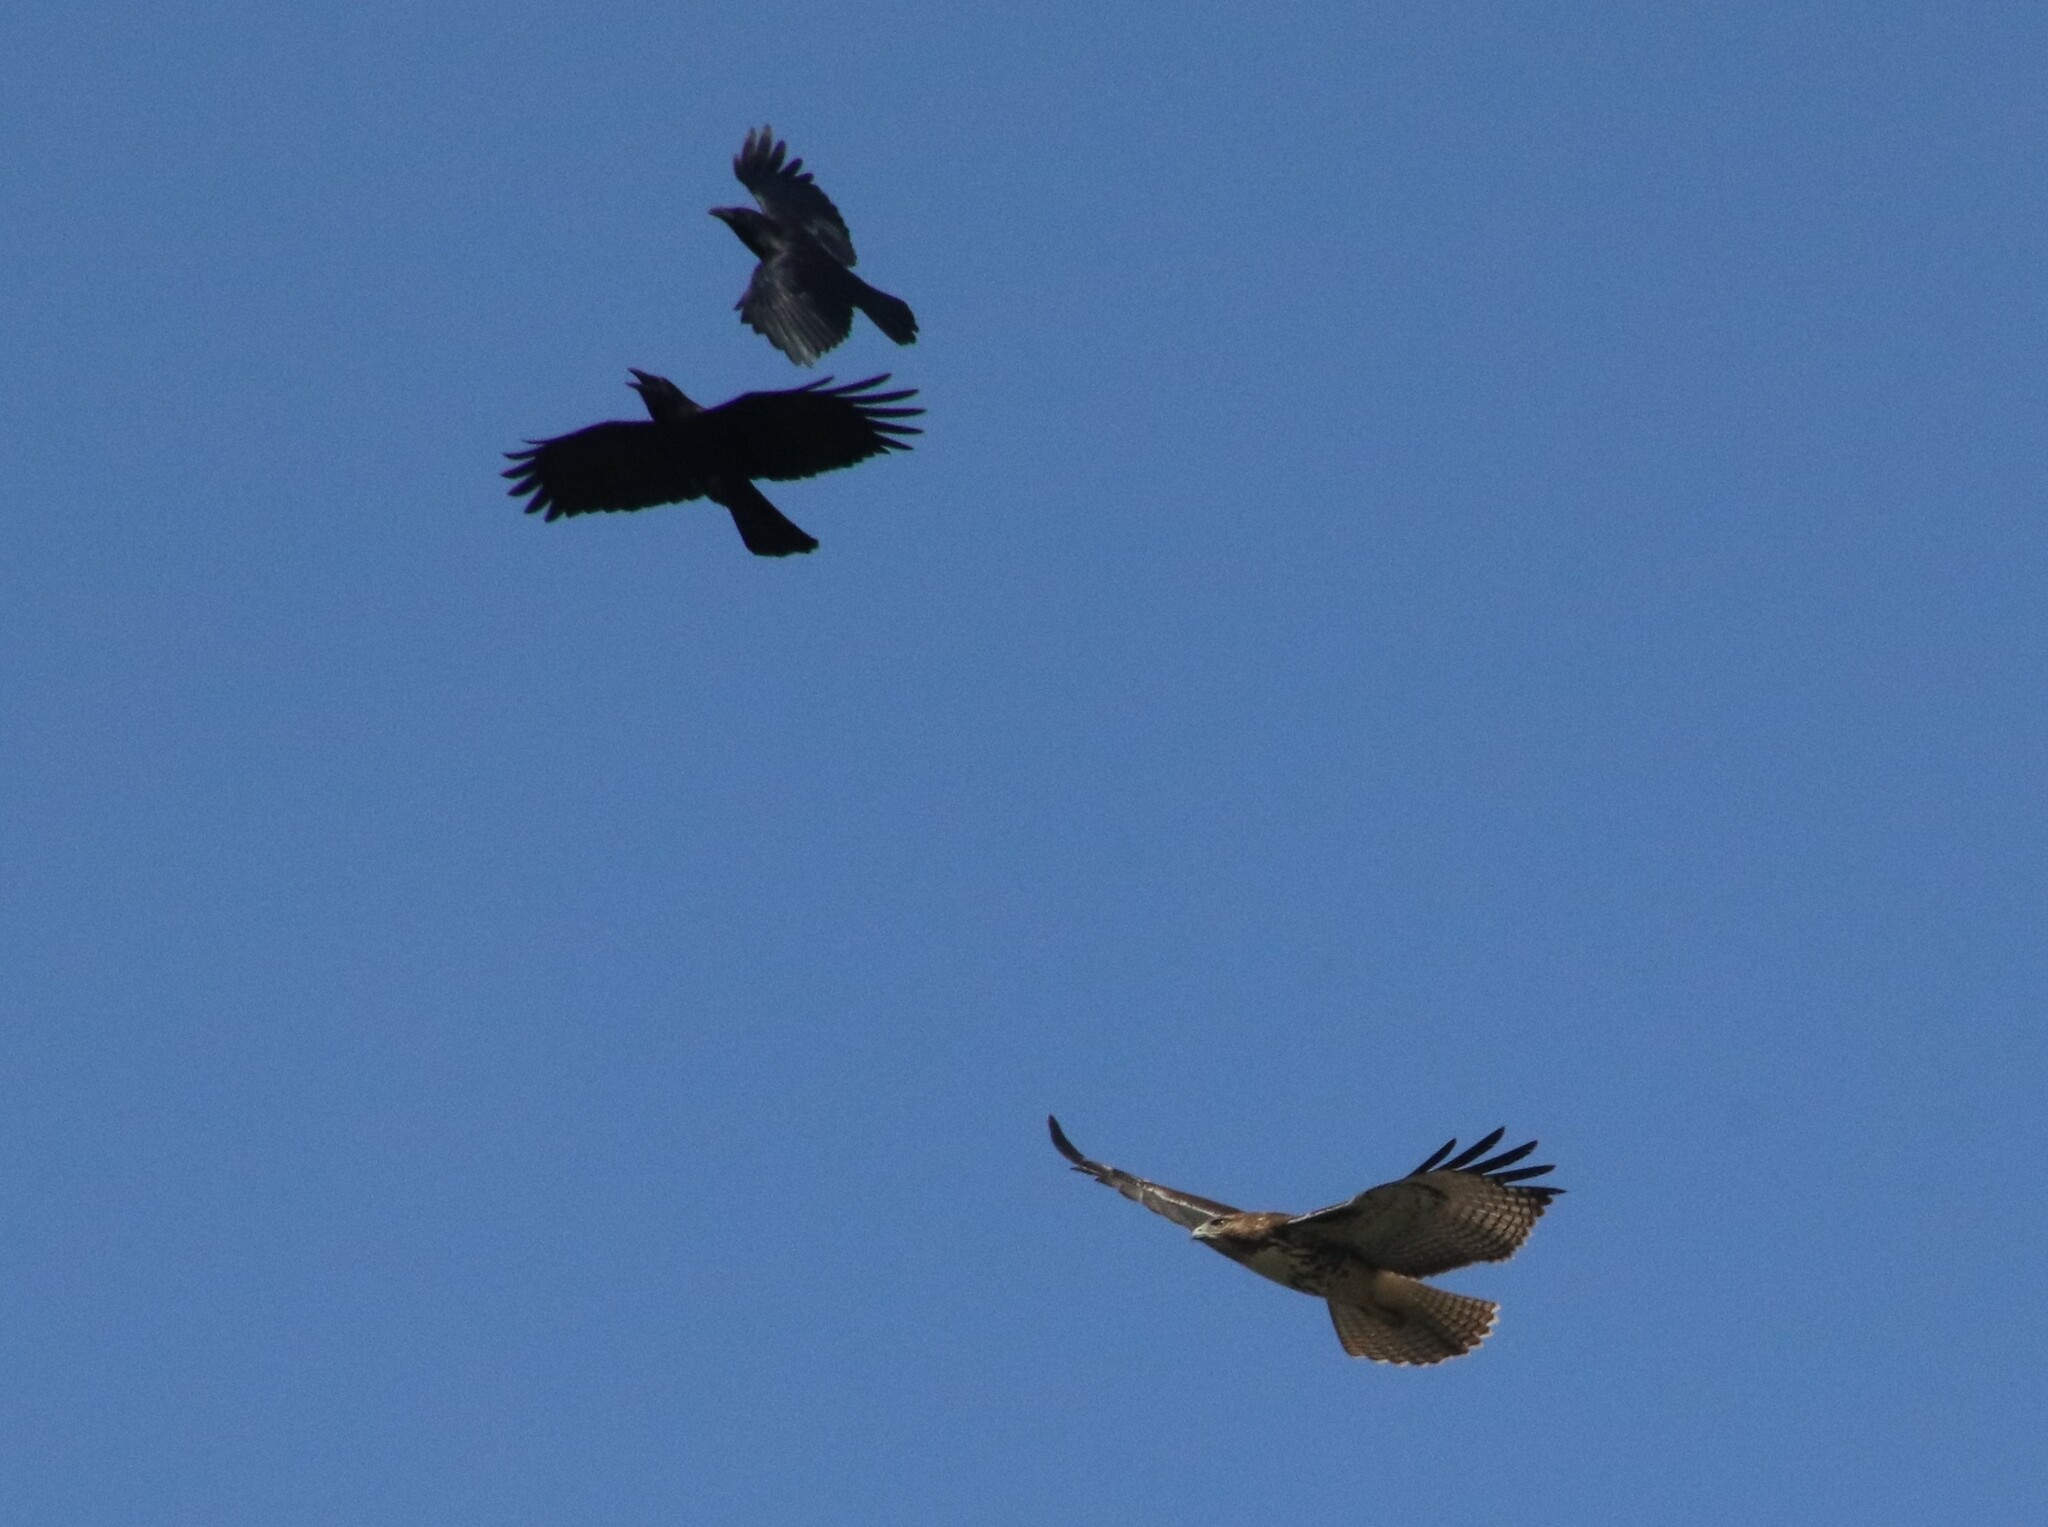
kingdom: Animalia
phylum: Chordata
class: Aves
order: Passeriformes
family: Corvidae
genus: Corvus
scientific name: Corvus brachyrhynchos
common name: American crow
